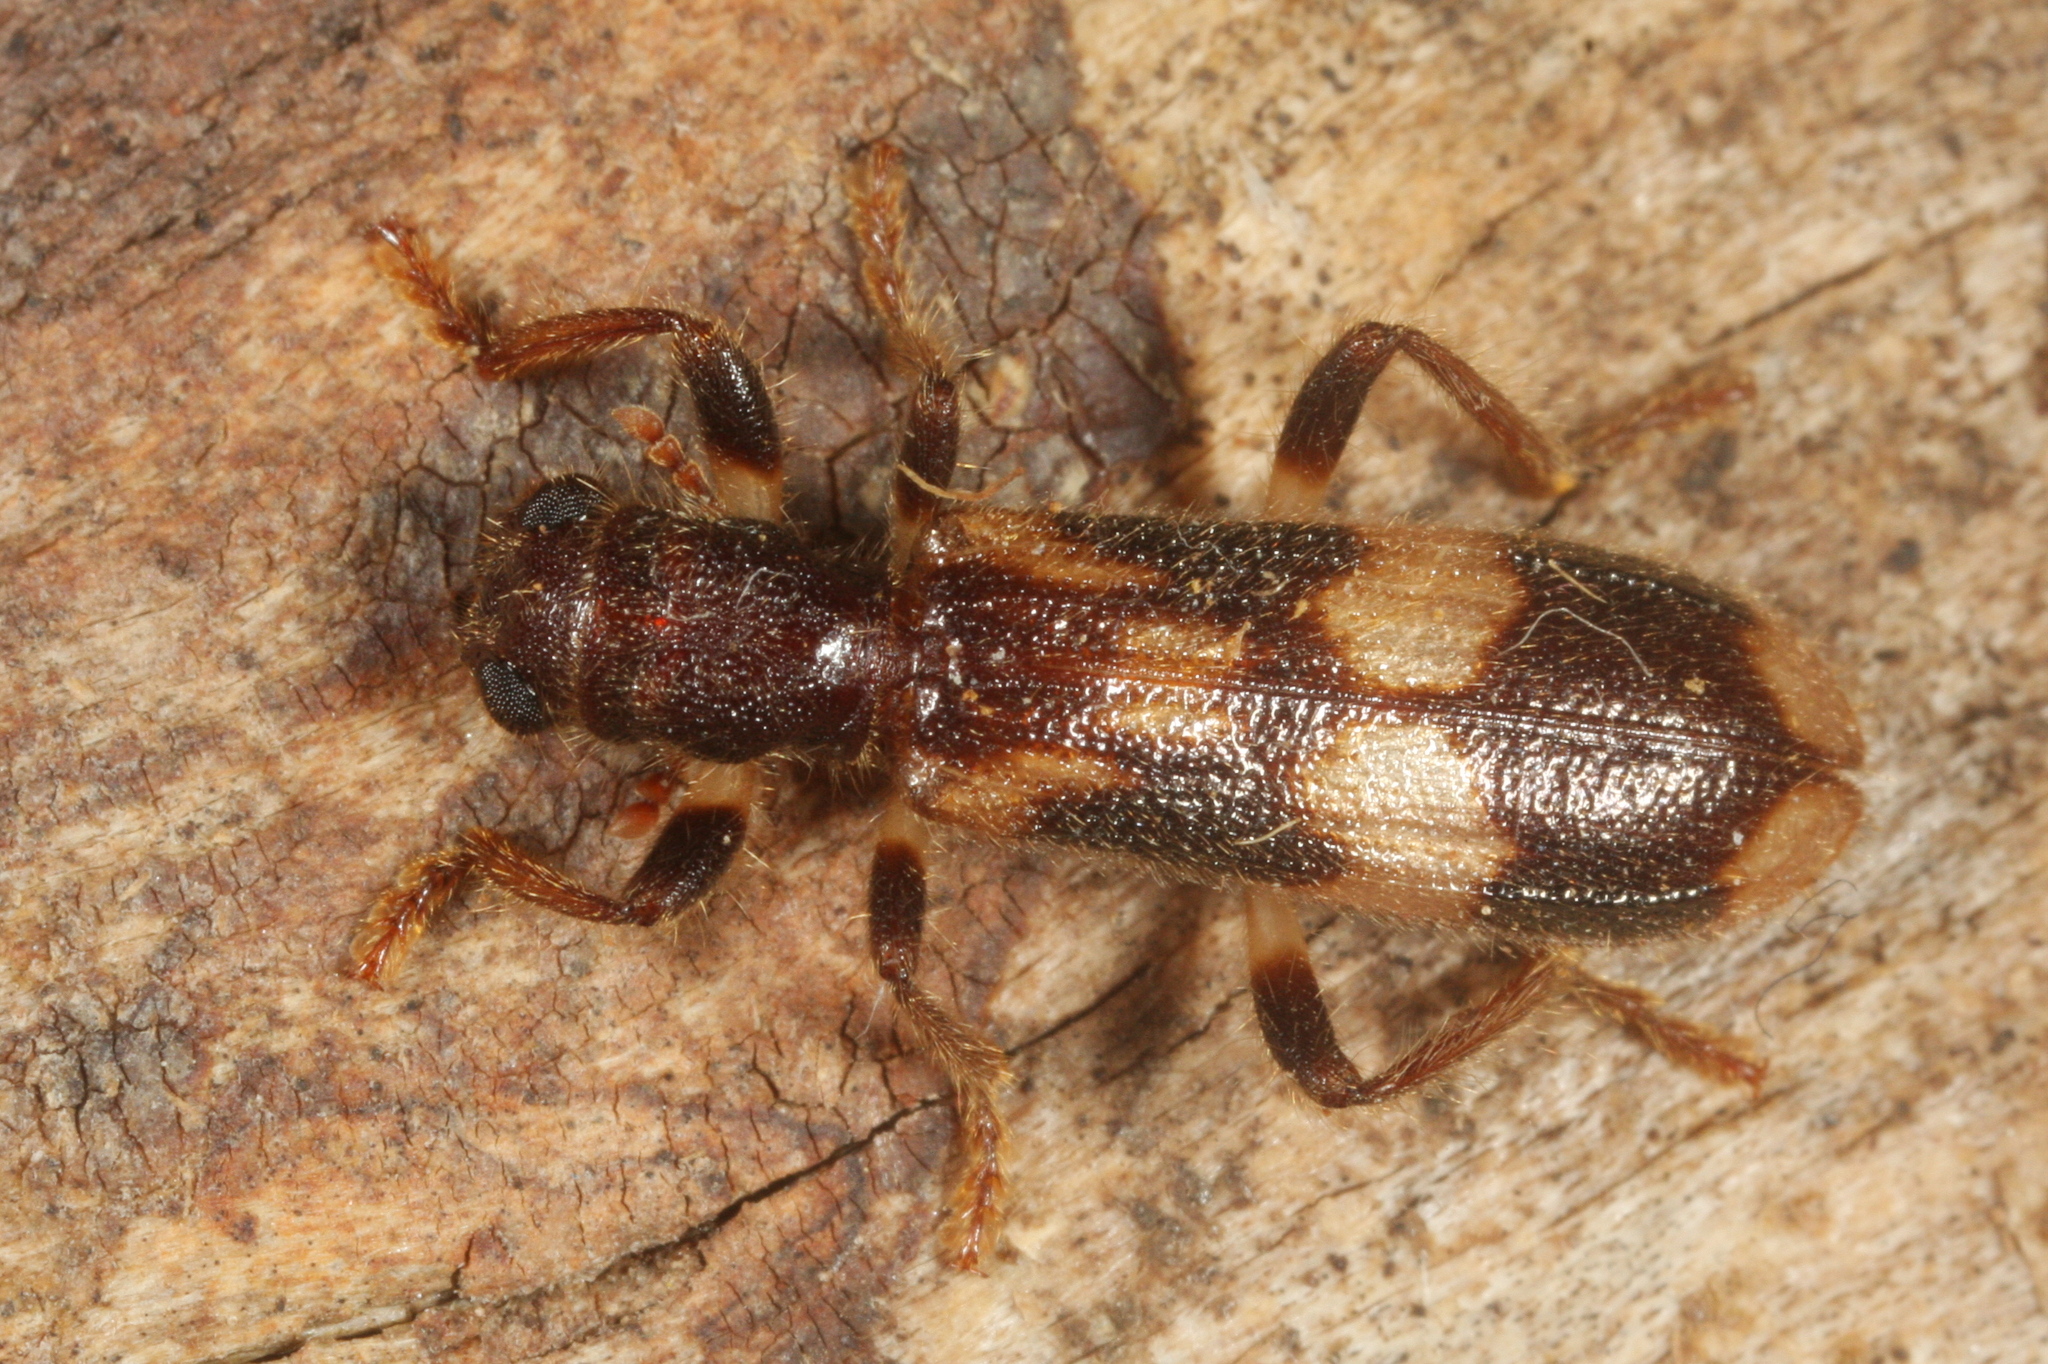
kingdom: Animalia
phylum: Arthropoda
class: Insecta
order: Coleoptera
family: Cleridae
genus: Opilo
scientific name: Opilo mollis
